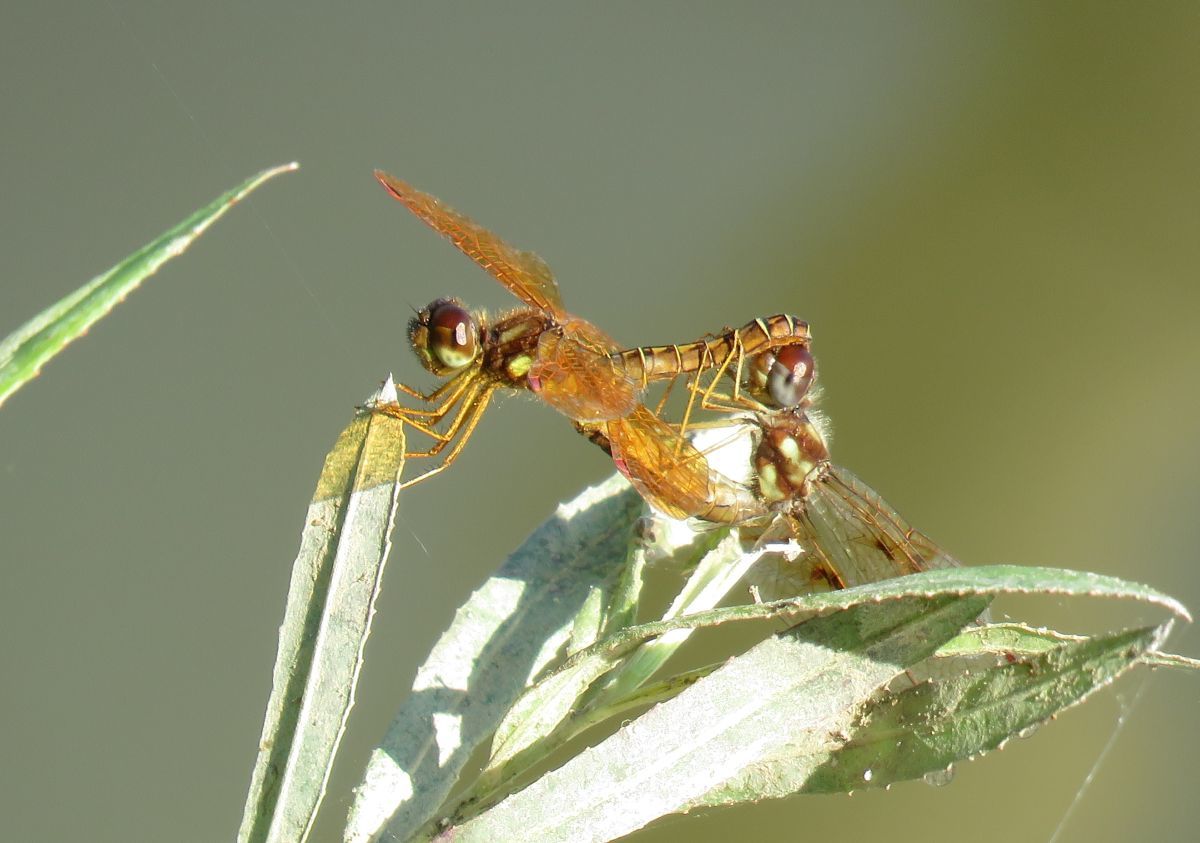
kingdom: Animalia
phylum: Arthropoda
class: Insecta
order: Odonata
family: Libellulidae
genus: Perithemis
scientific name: Perithemis tenera
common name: Eastern amberwing
